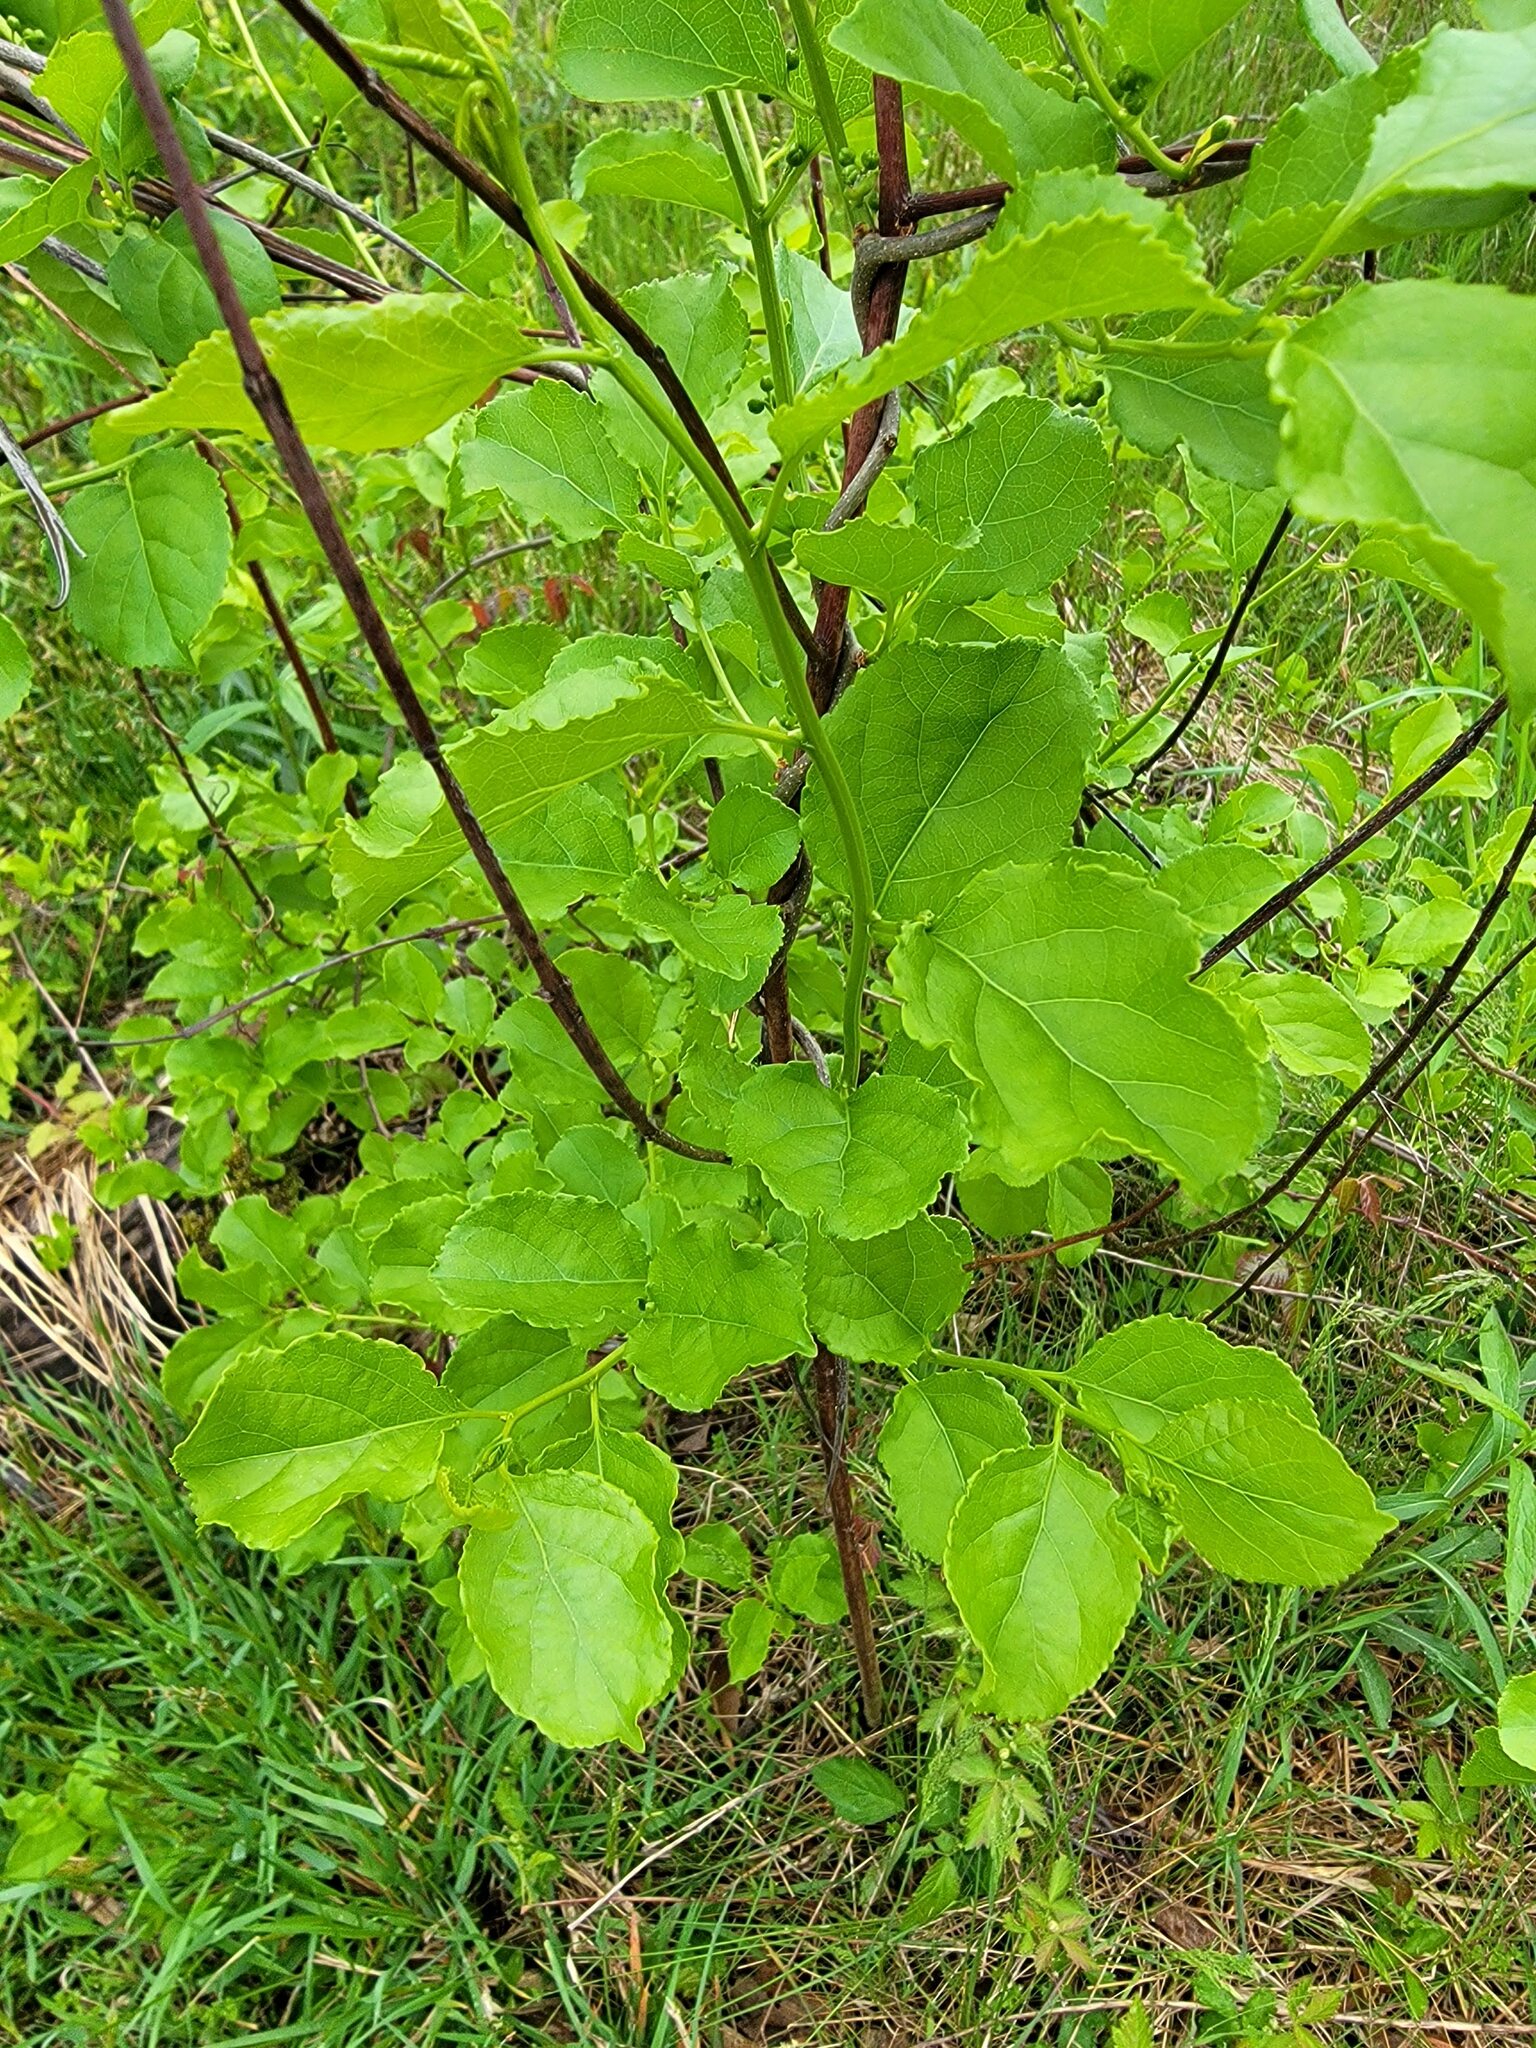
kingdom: Plantae
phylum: Tracheophyta
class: Magnoliopsida
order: Celastrales
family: Celastraceae
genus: Celastrus
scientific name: Celastrus orbiculatus
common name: Oriental bittersweet
